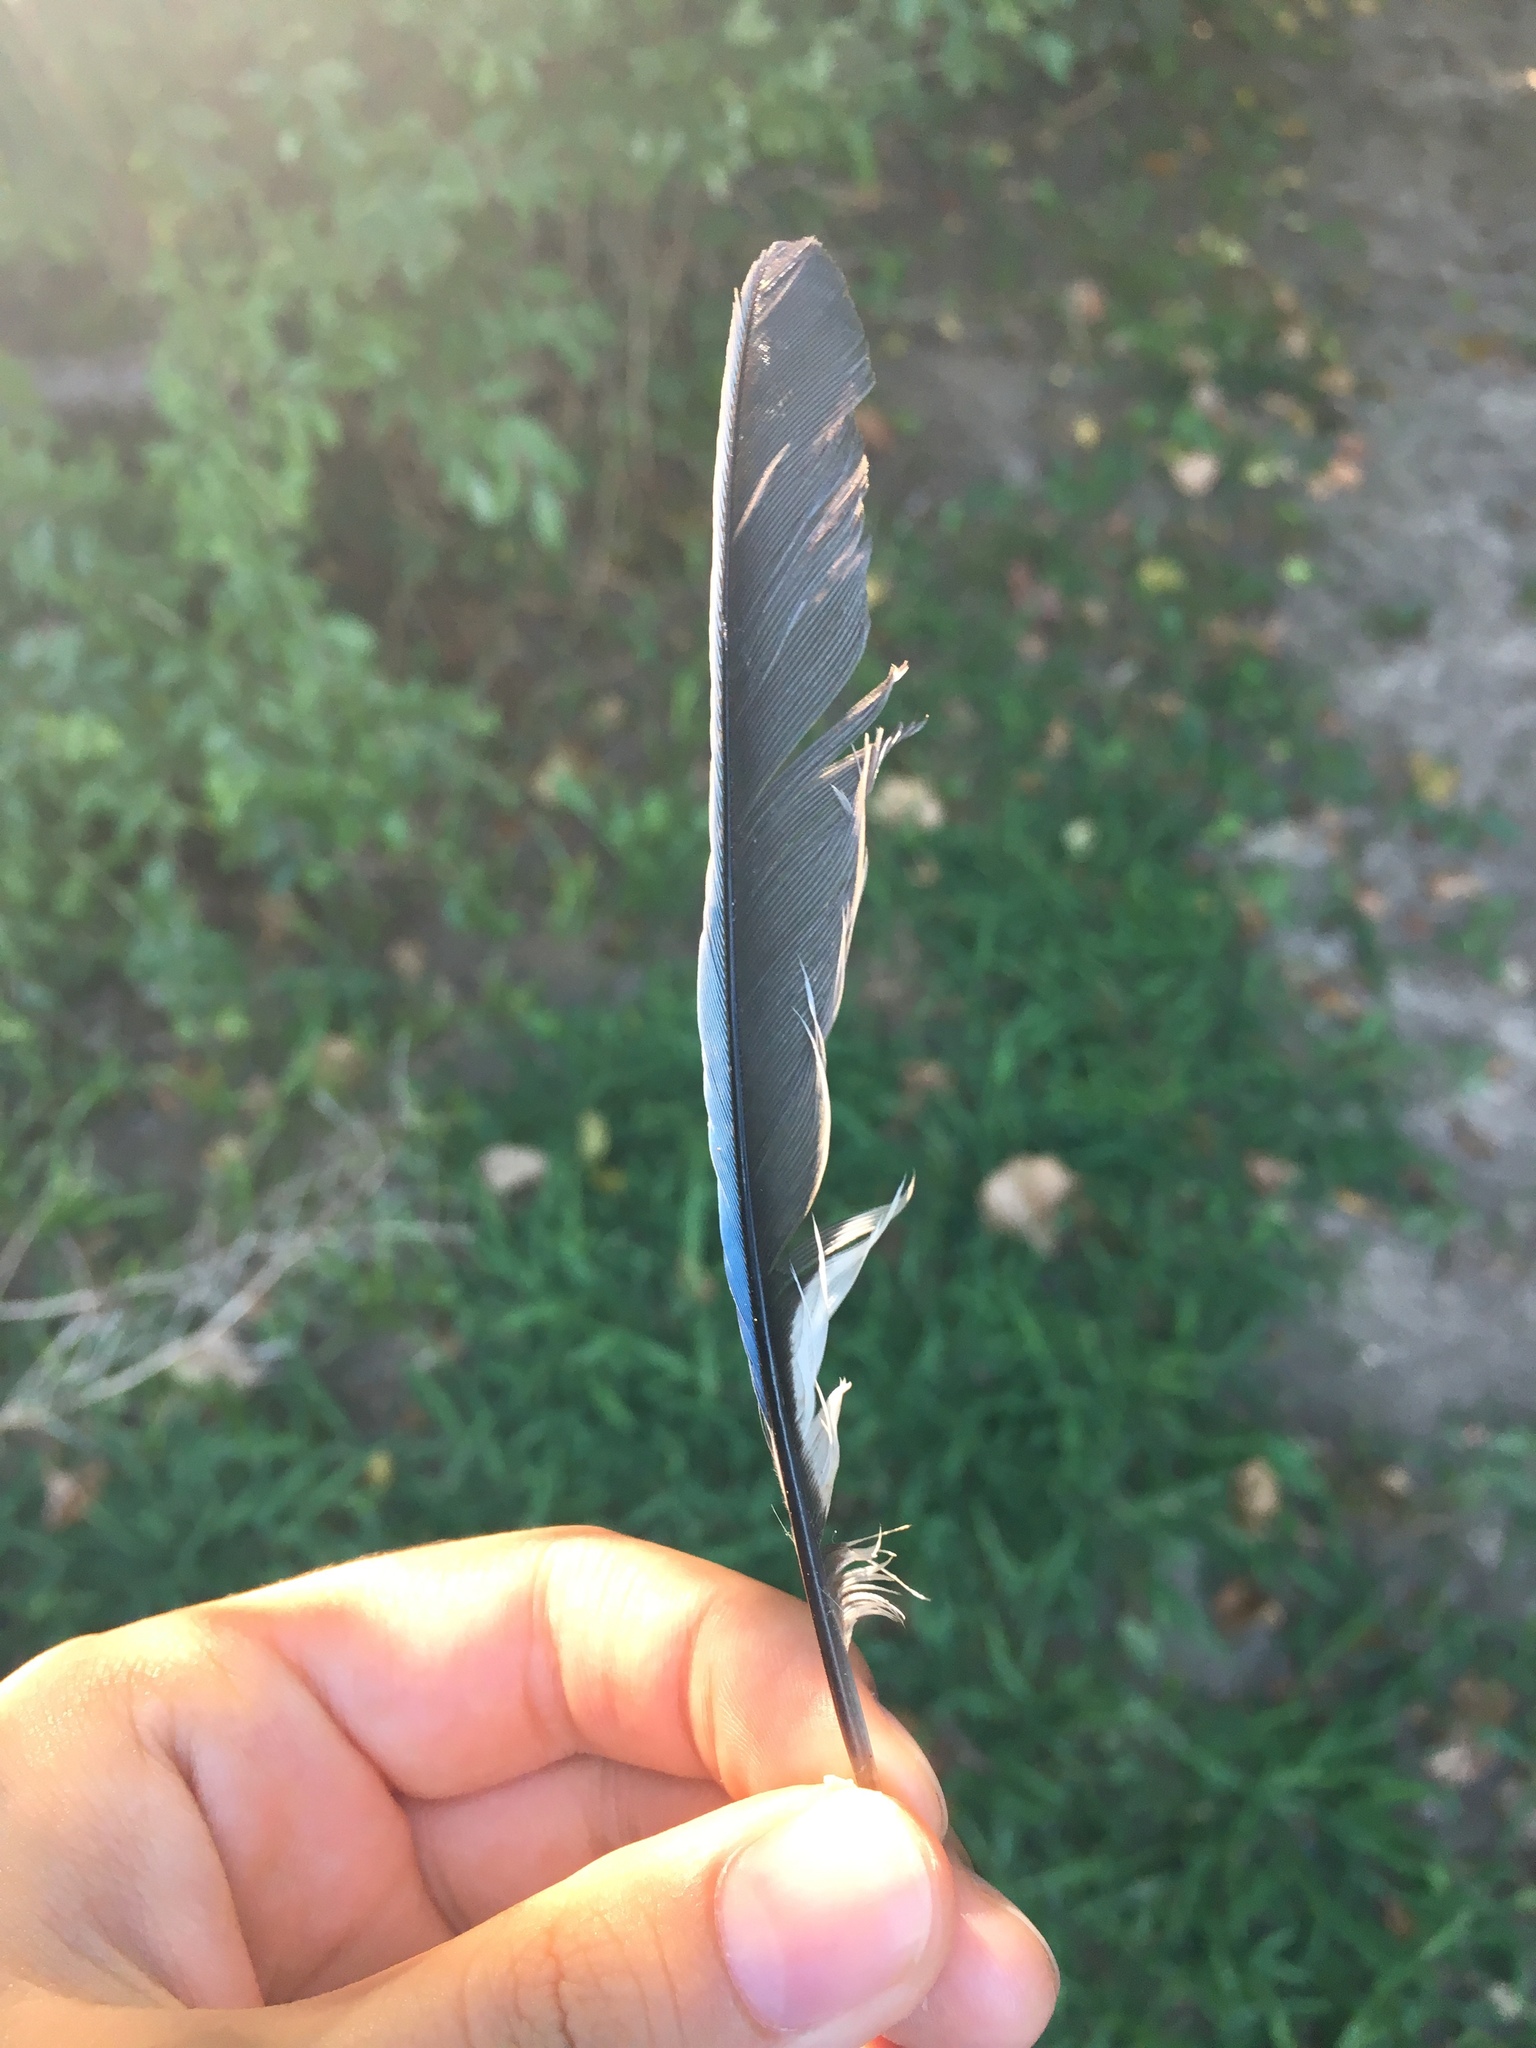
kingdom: Animalia
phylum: Chordata
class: Aves
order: Passeriformes
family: Corvidae
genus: Cyanocitta
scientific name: Cyanocitta cristata
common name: Blue jay
